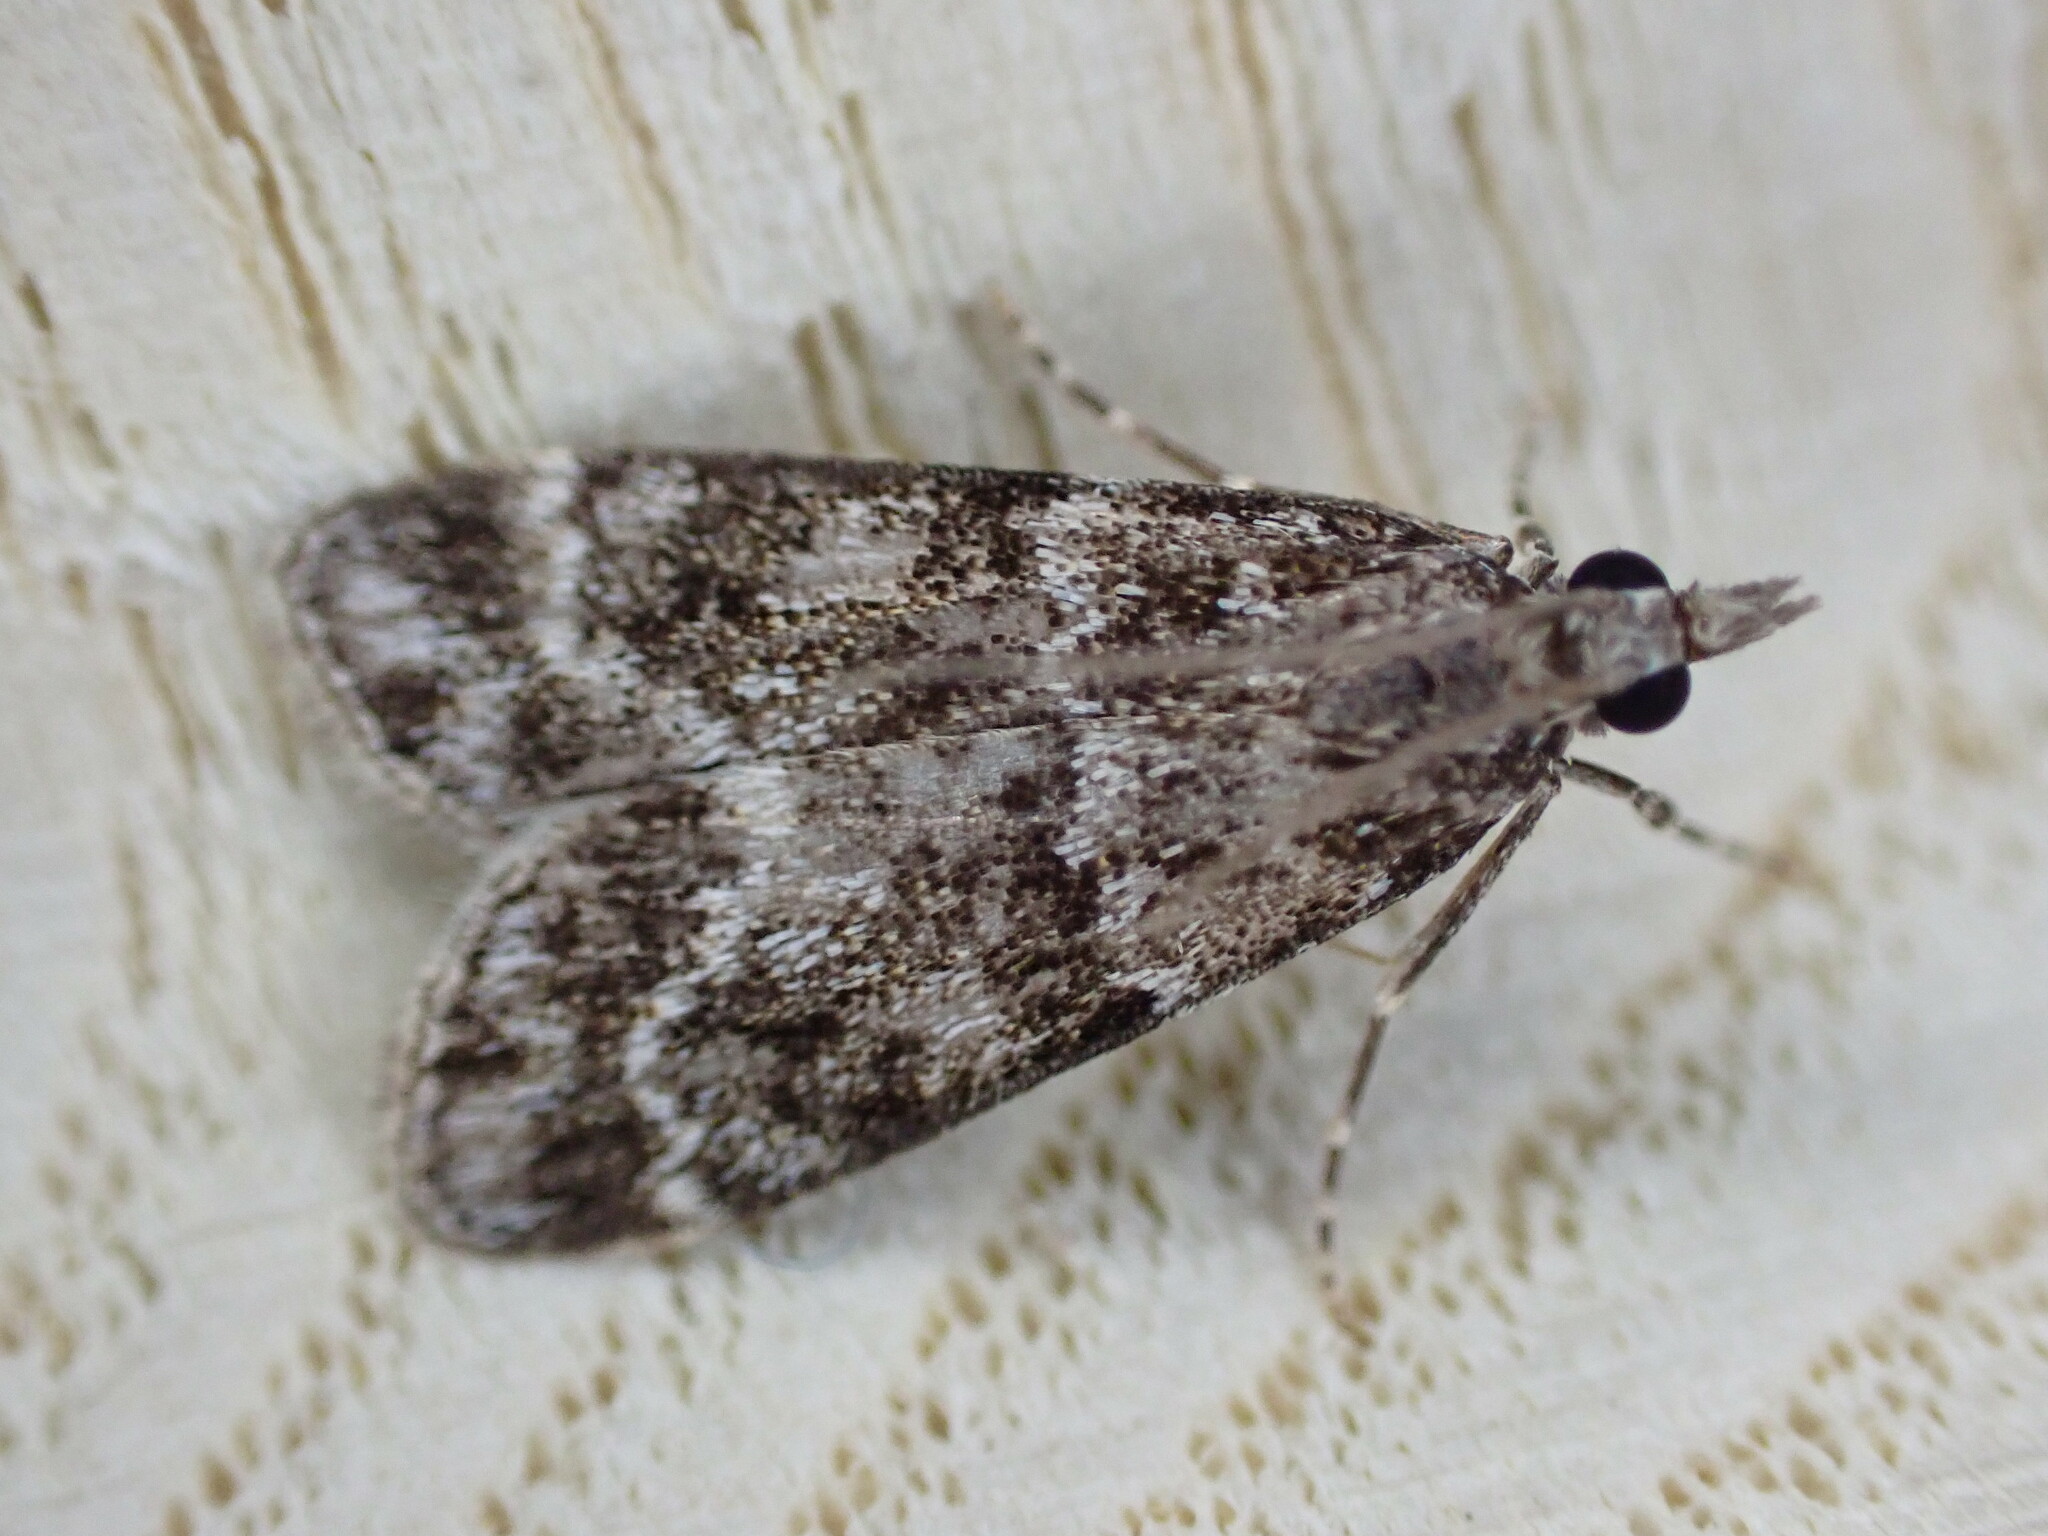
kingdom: Animalia
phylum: Arthropoda
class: Insecta
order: Lepidoptera
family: Crambidae
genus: Eudonia
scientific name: Eudonia mercurella
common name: Small grey
